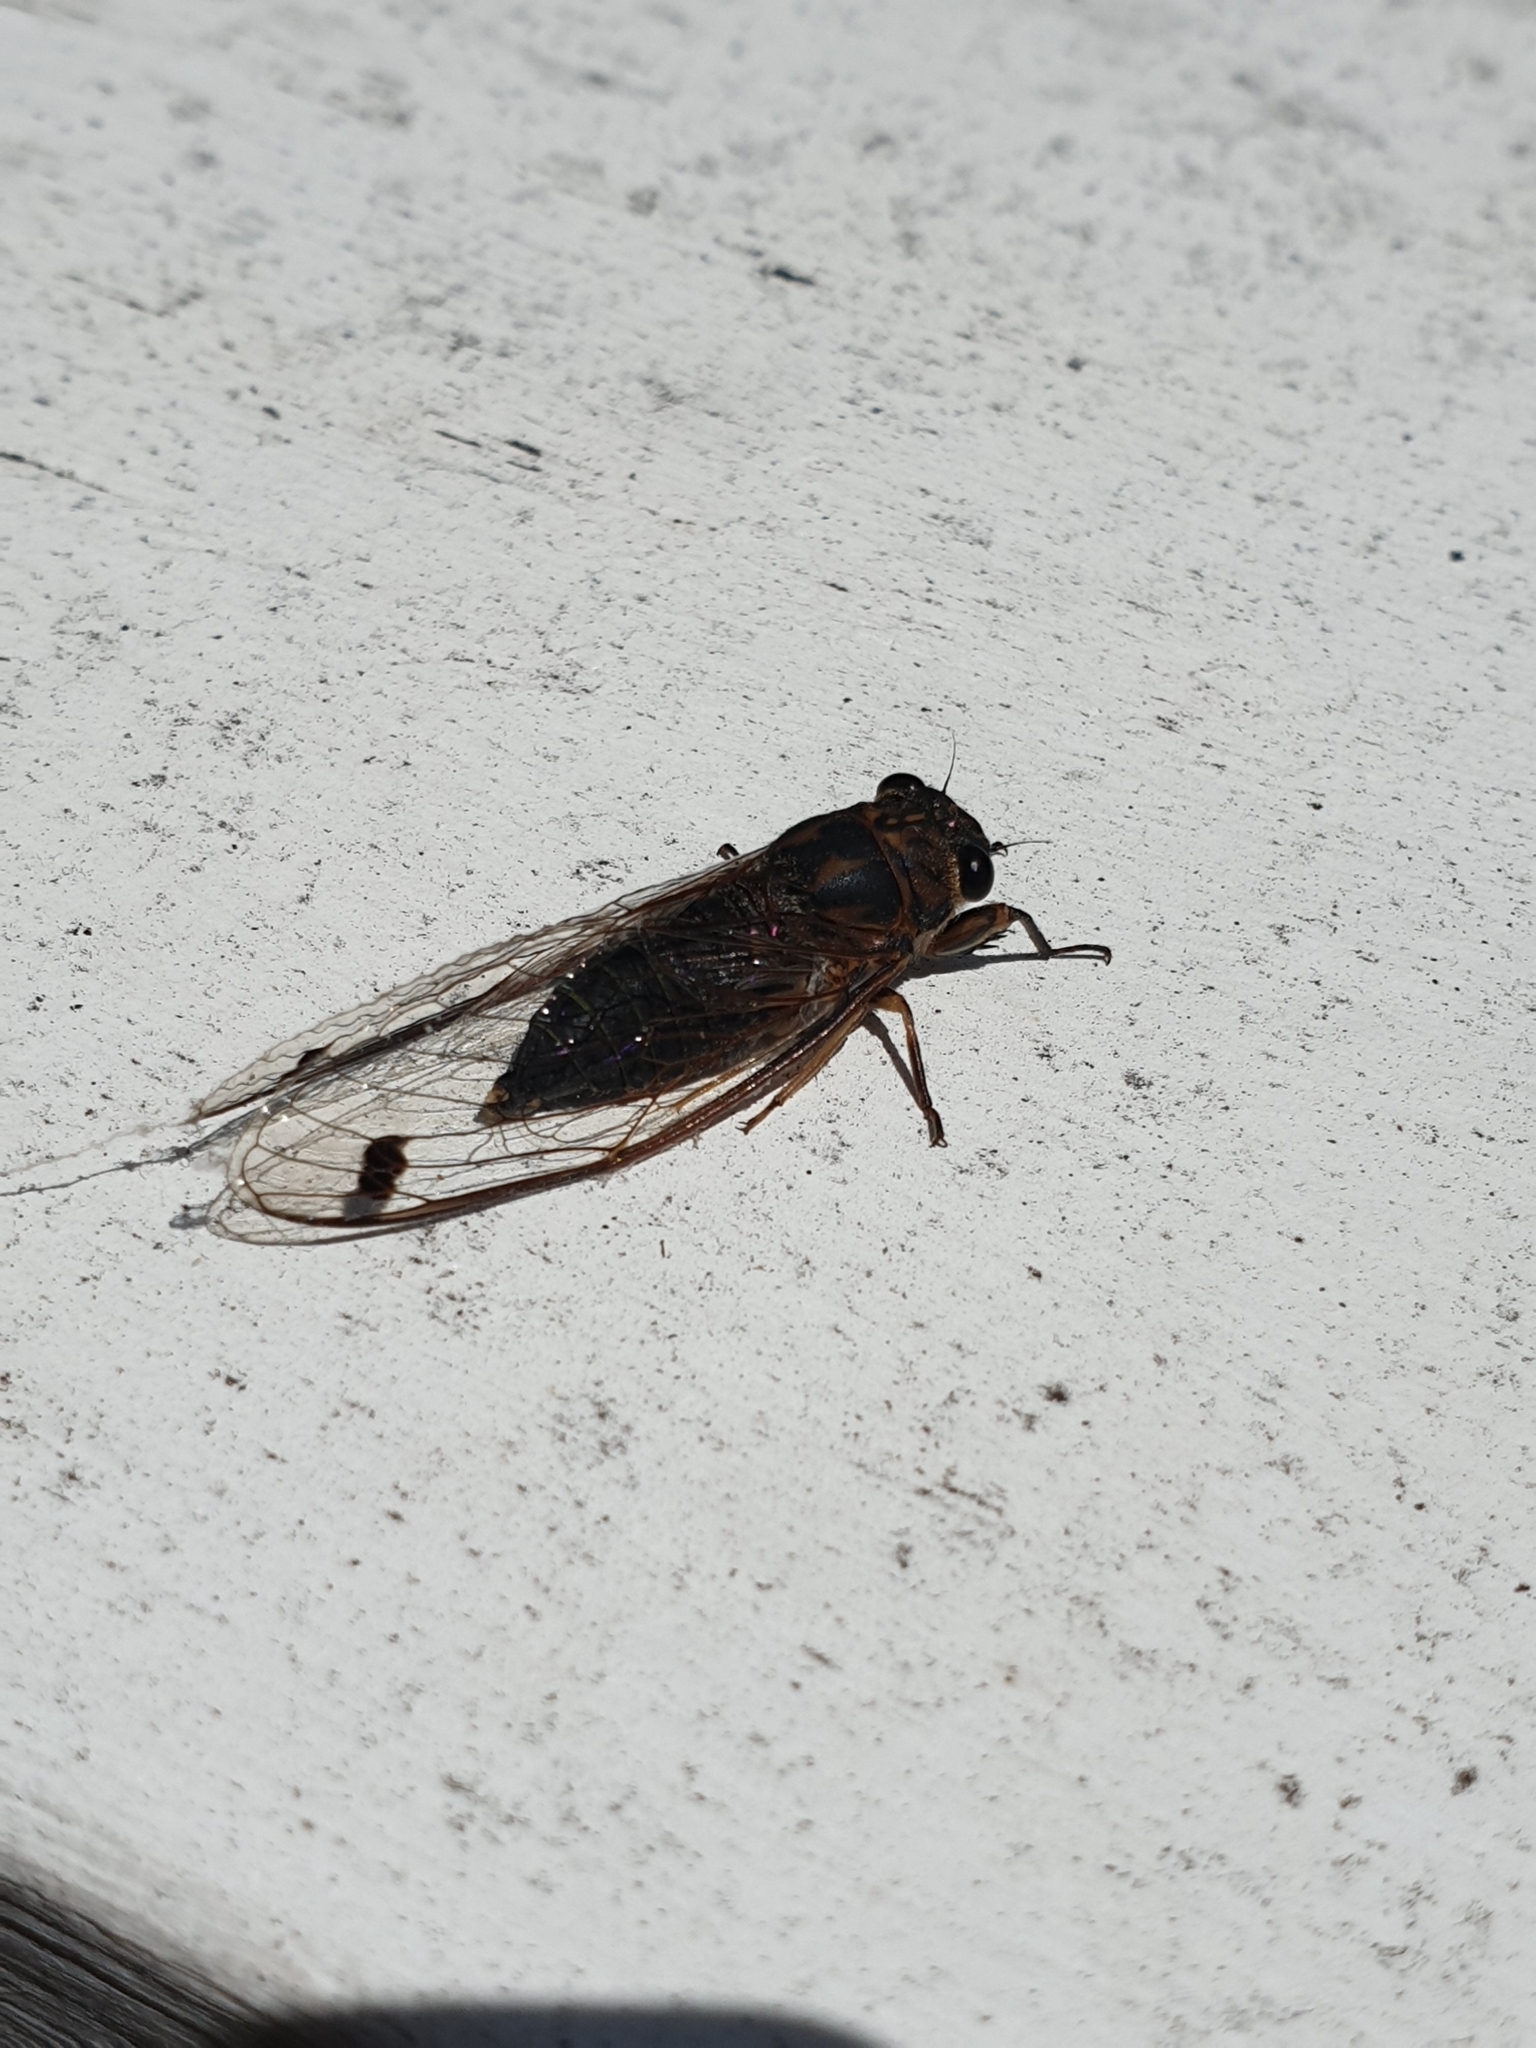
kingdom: Animalia
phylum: Arthropoda
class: Insecta
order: Hemiptera
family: Cicadidae
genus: Galanga
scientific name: Galanga labeculata
